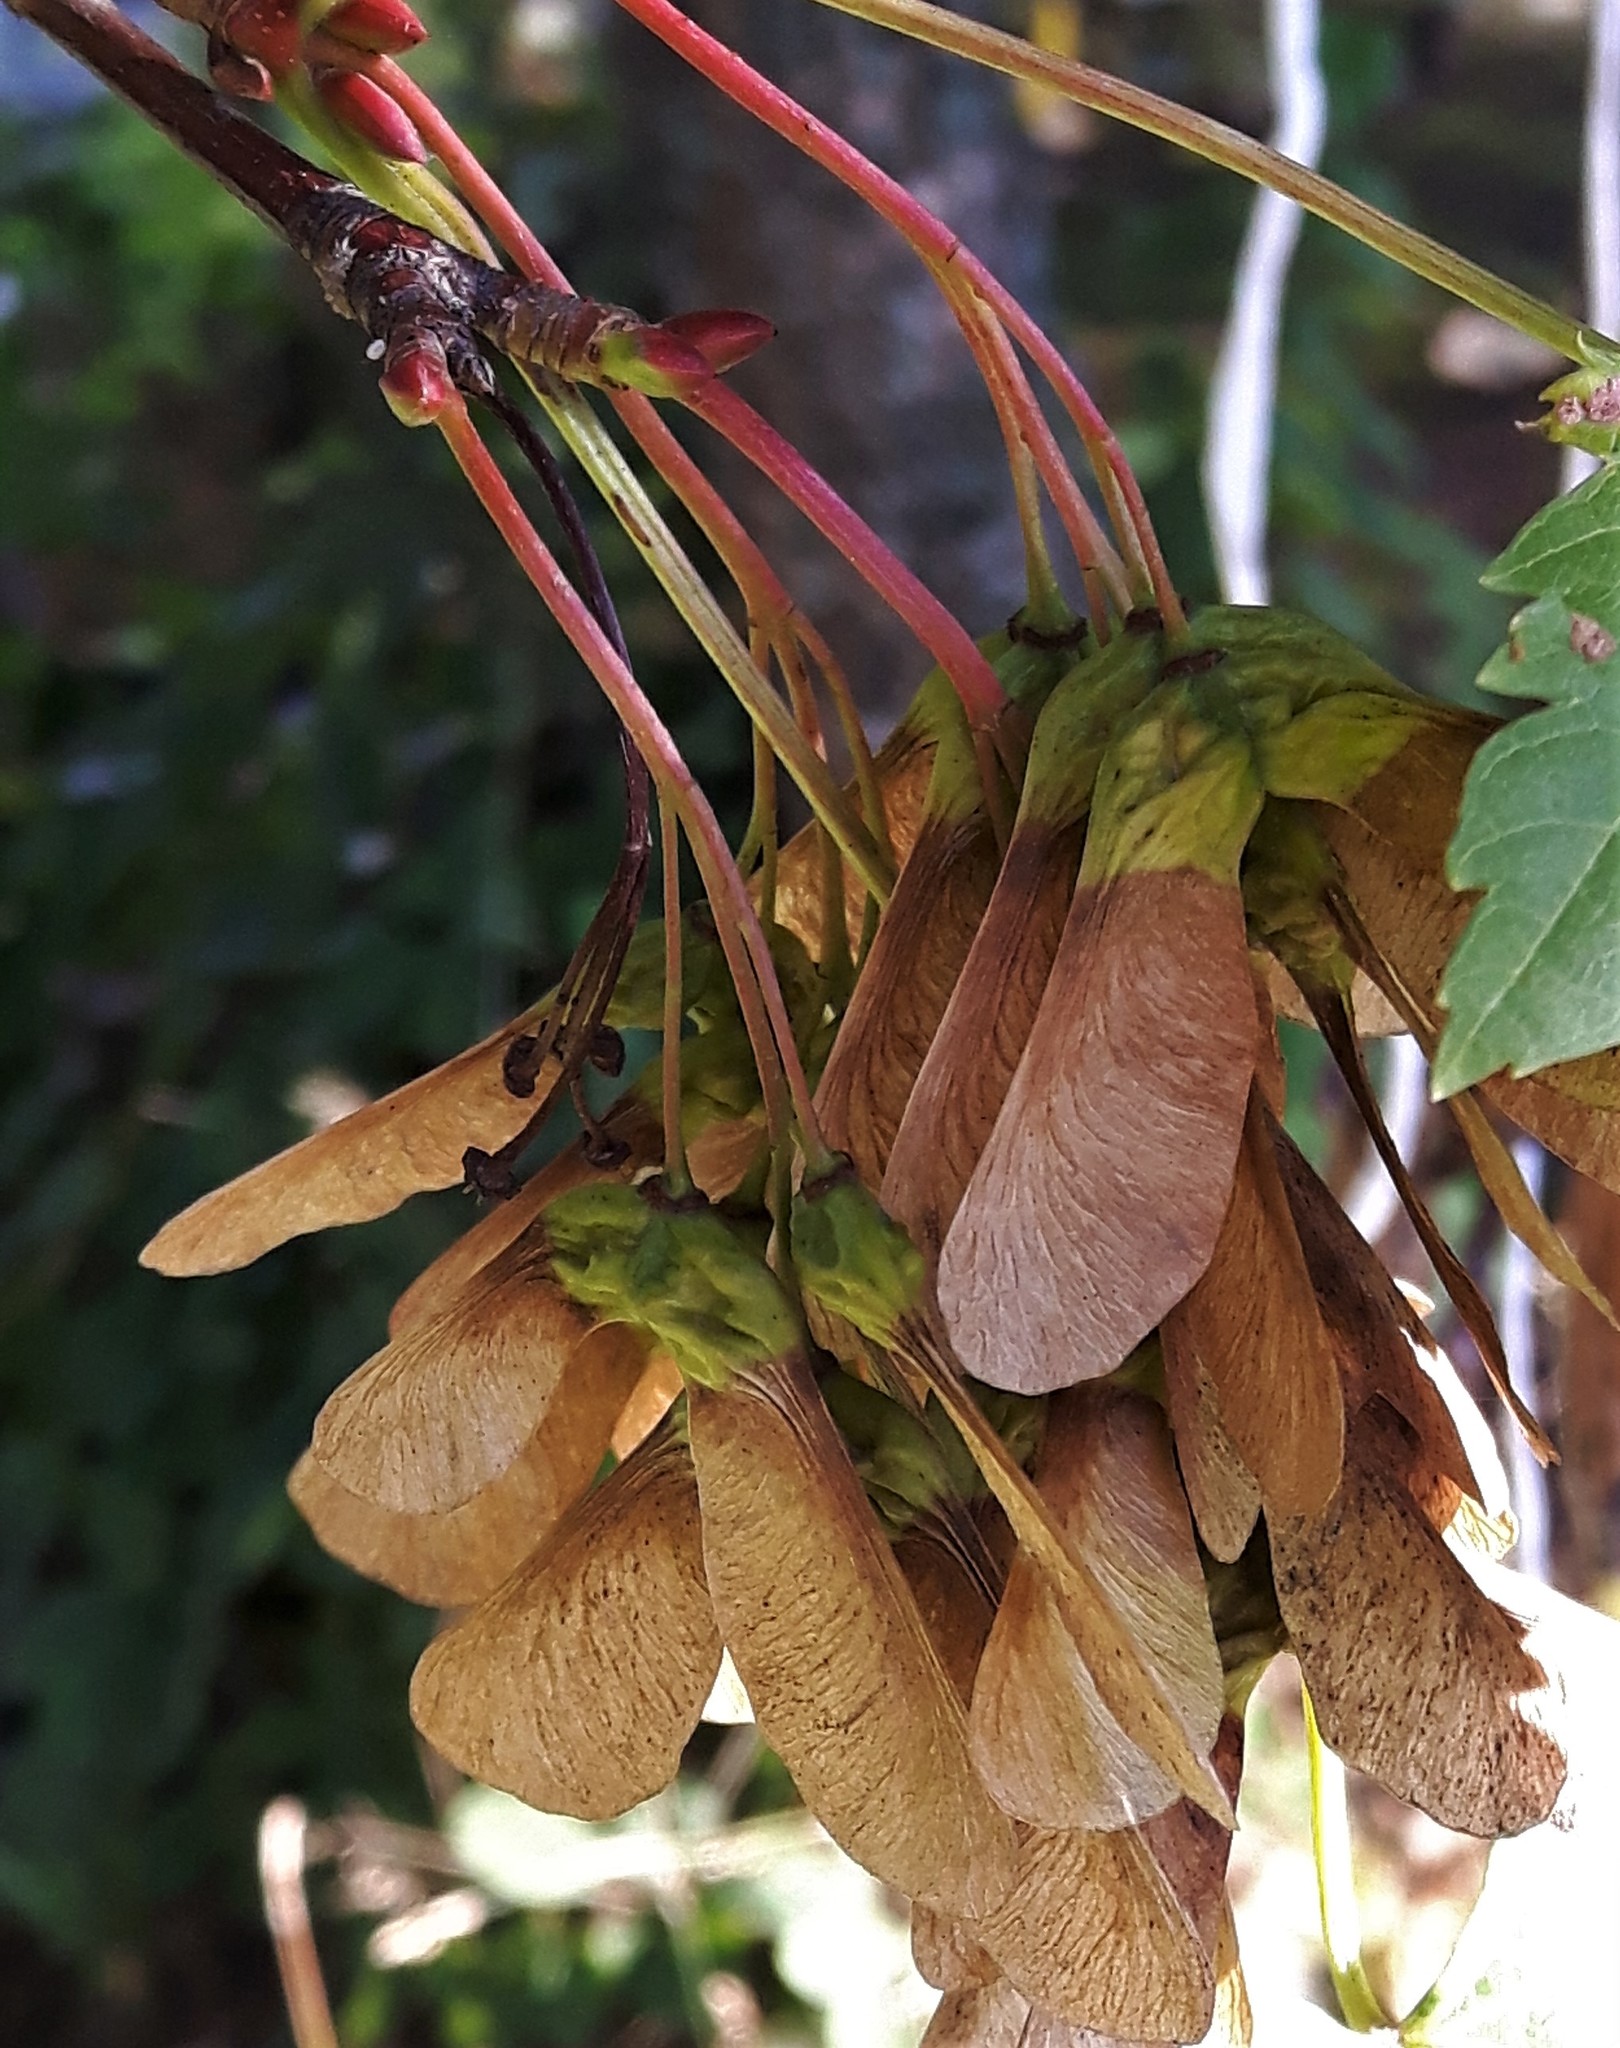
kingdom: Plantae
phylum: Tracheophyta
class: Magnoliopsida
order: Sapindales
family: Sapindaceae
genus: Acer
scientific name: Acer glabrum
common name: Rocky mountain maple
